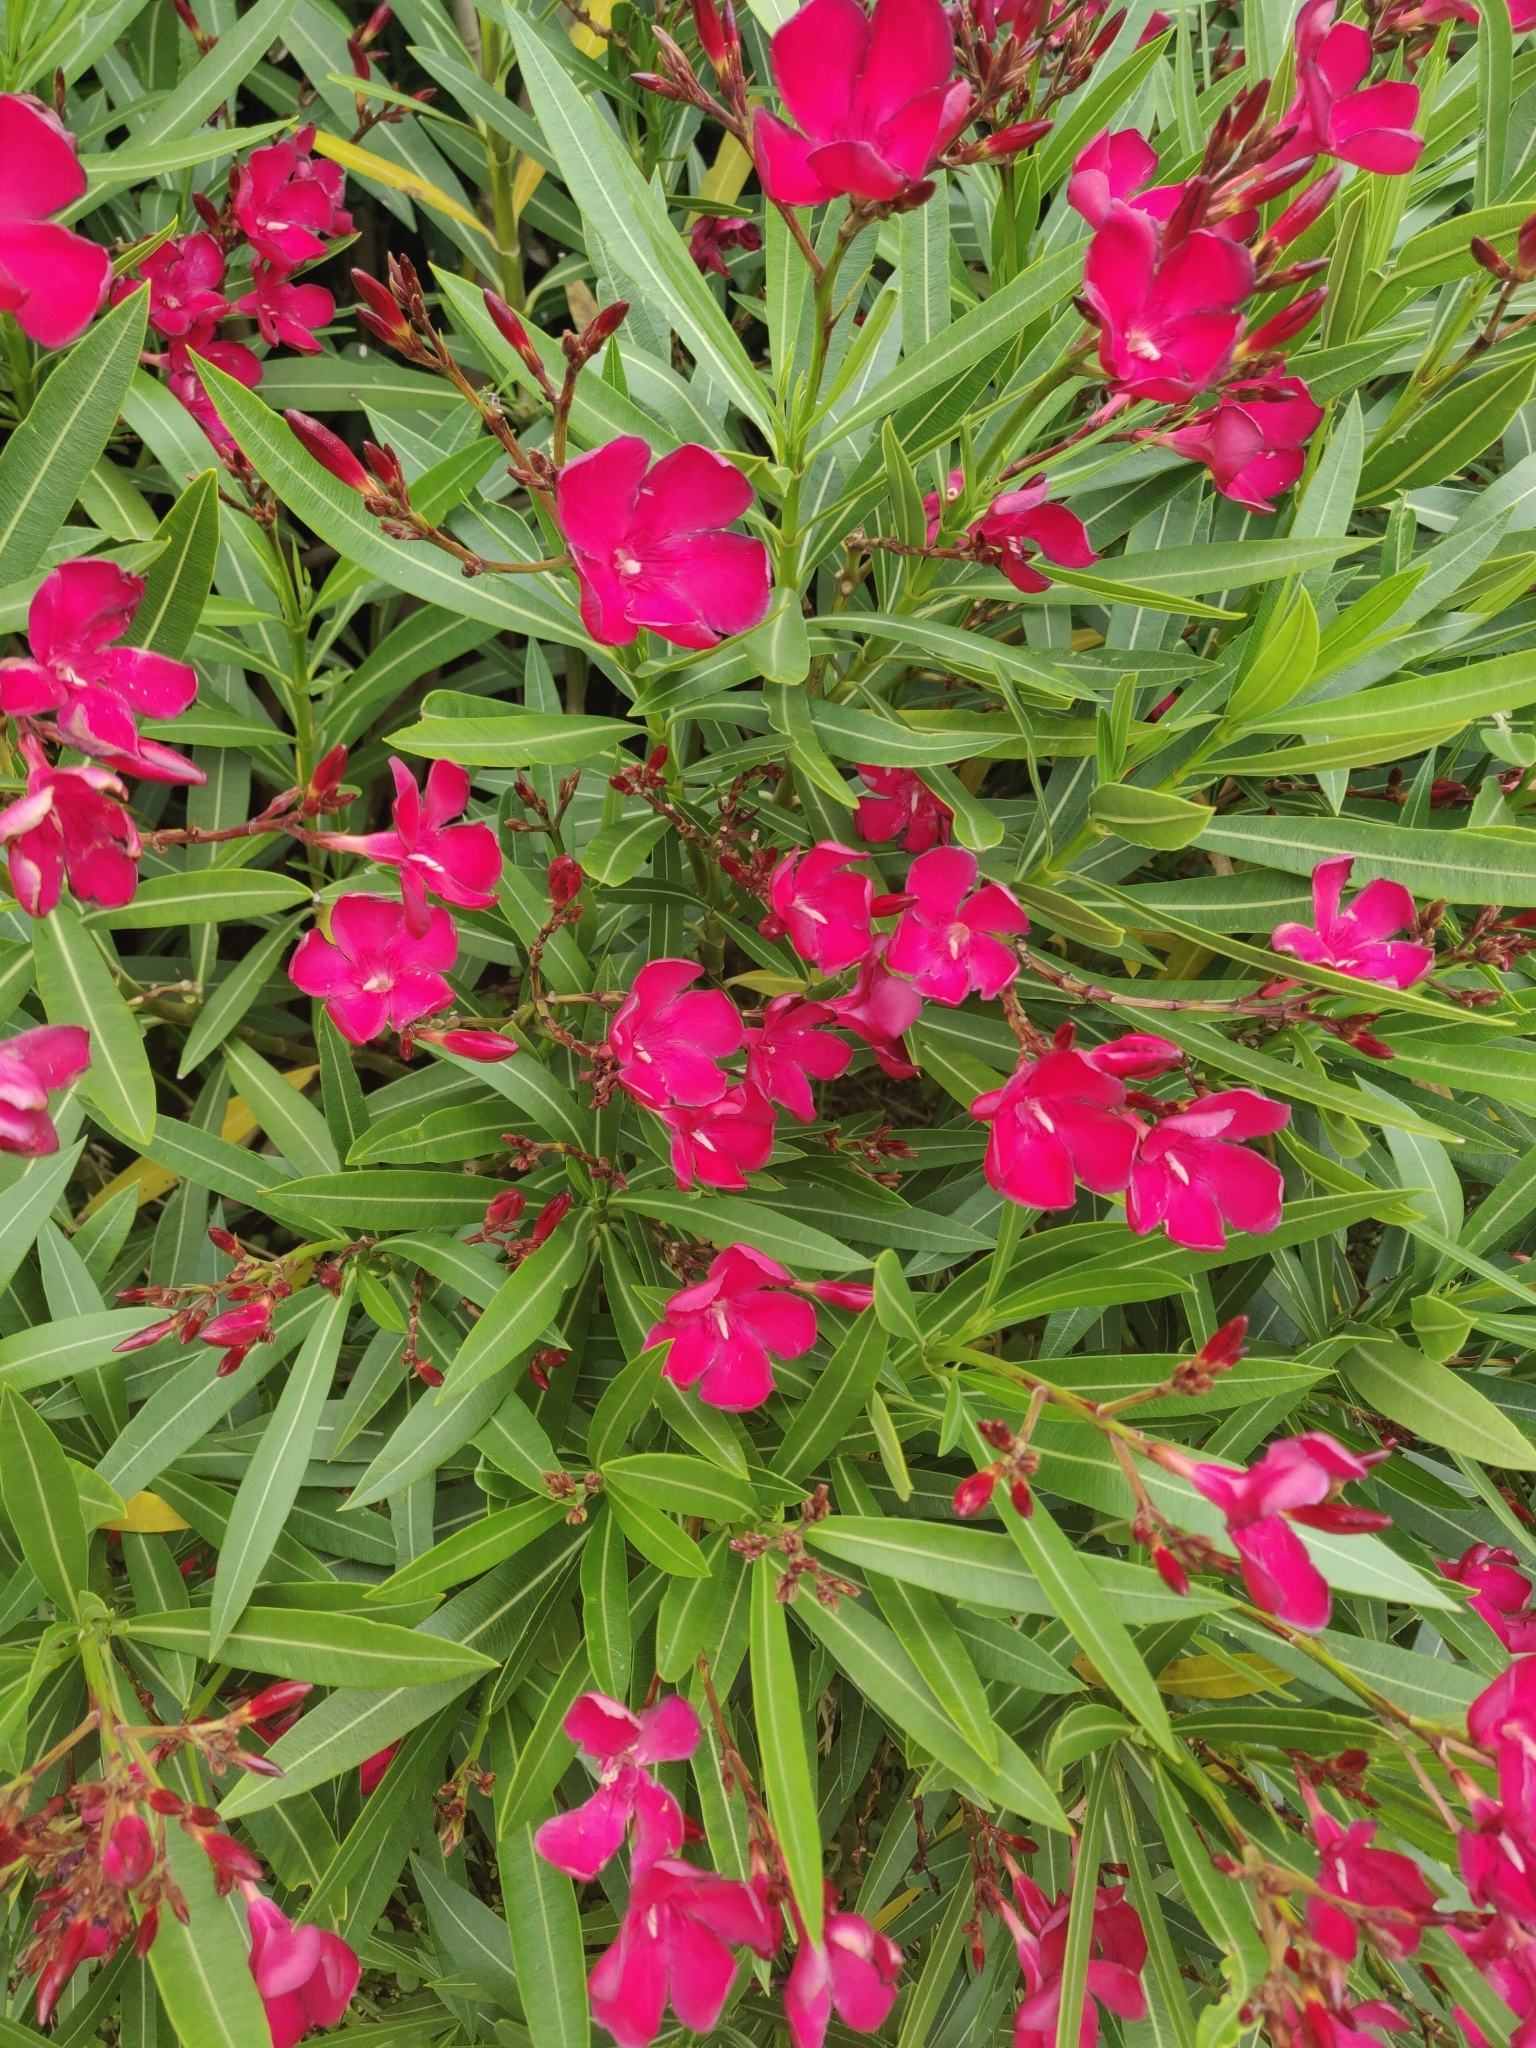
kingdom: Plantae
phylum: Tracheophyta
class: Magnoliopsida
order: Gentianales
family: Apocynaceae
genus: Nerium
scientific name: Nerium oleander
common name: Oleander
